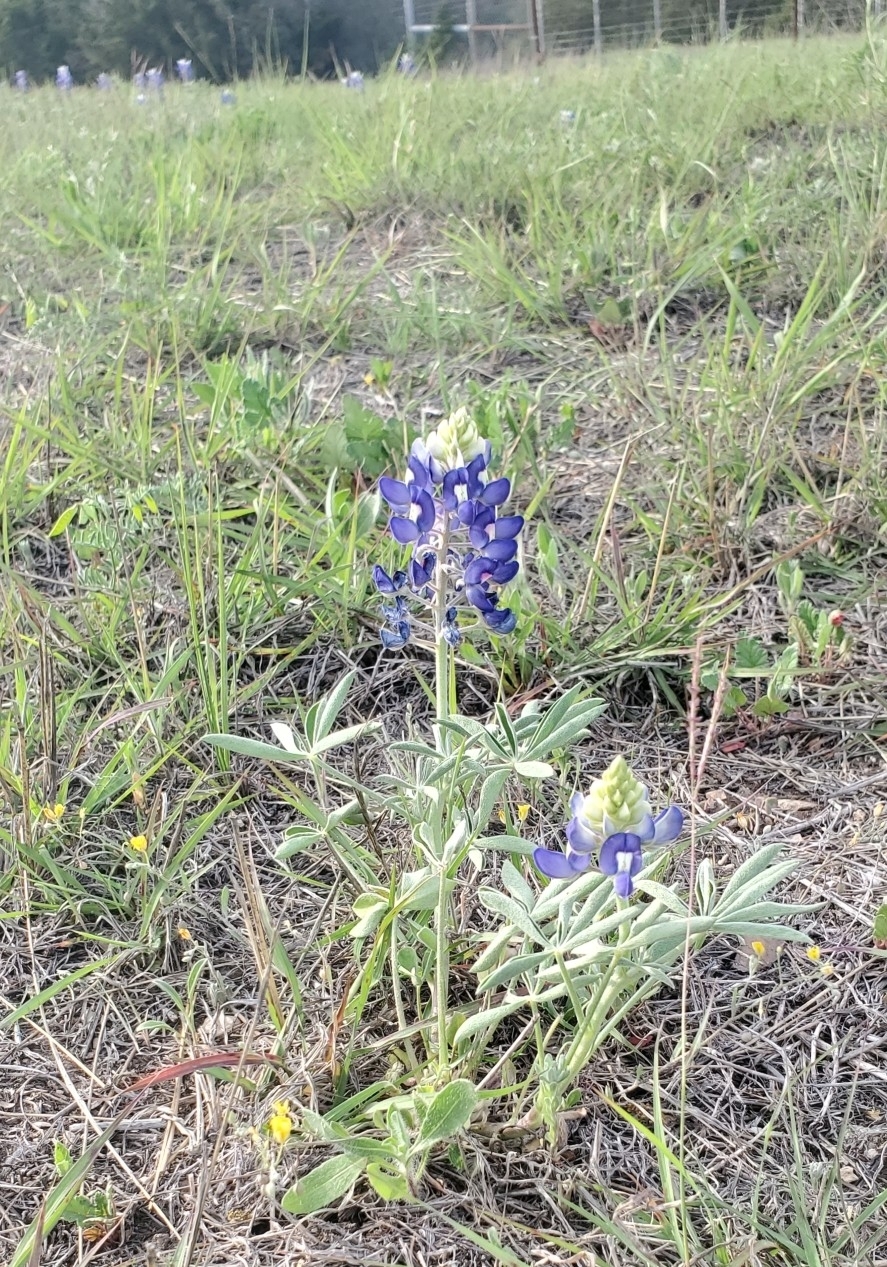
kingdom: Plantae
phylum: Tracheophyta
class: Magnoliopsida
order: Fabales
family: Fabaceae
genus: Lupinus
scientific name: Lupinus texensis
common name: Texas bluebonnet
